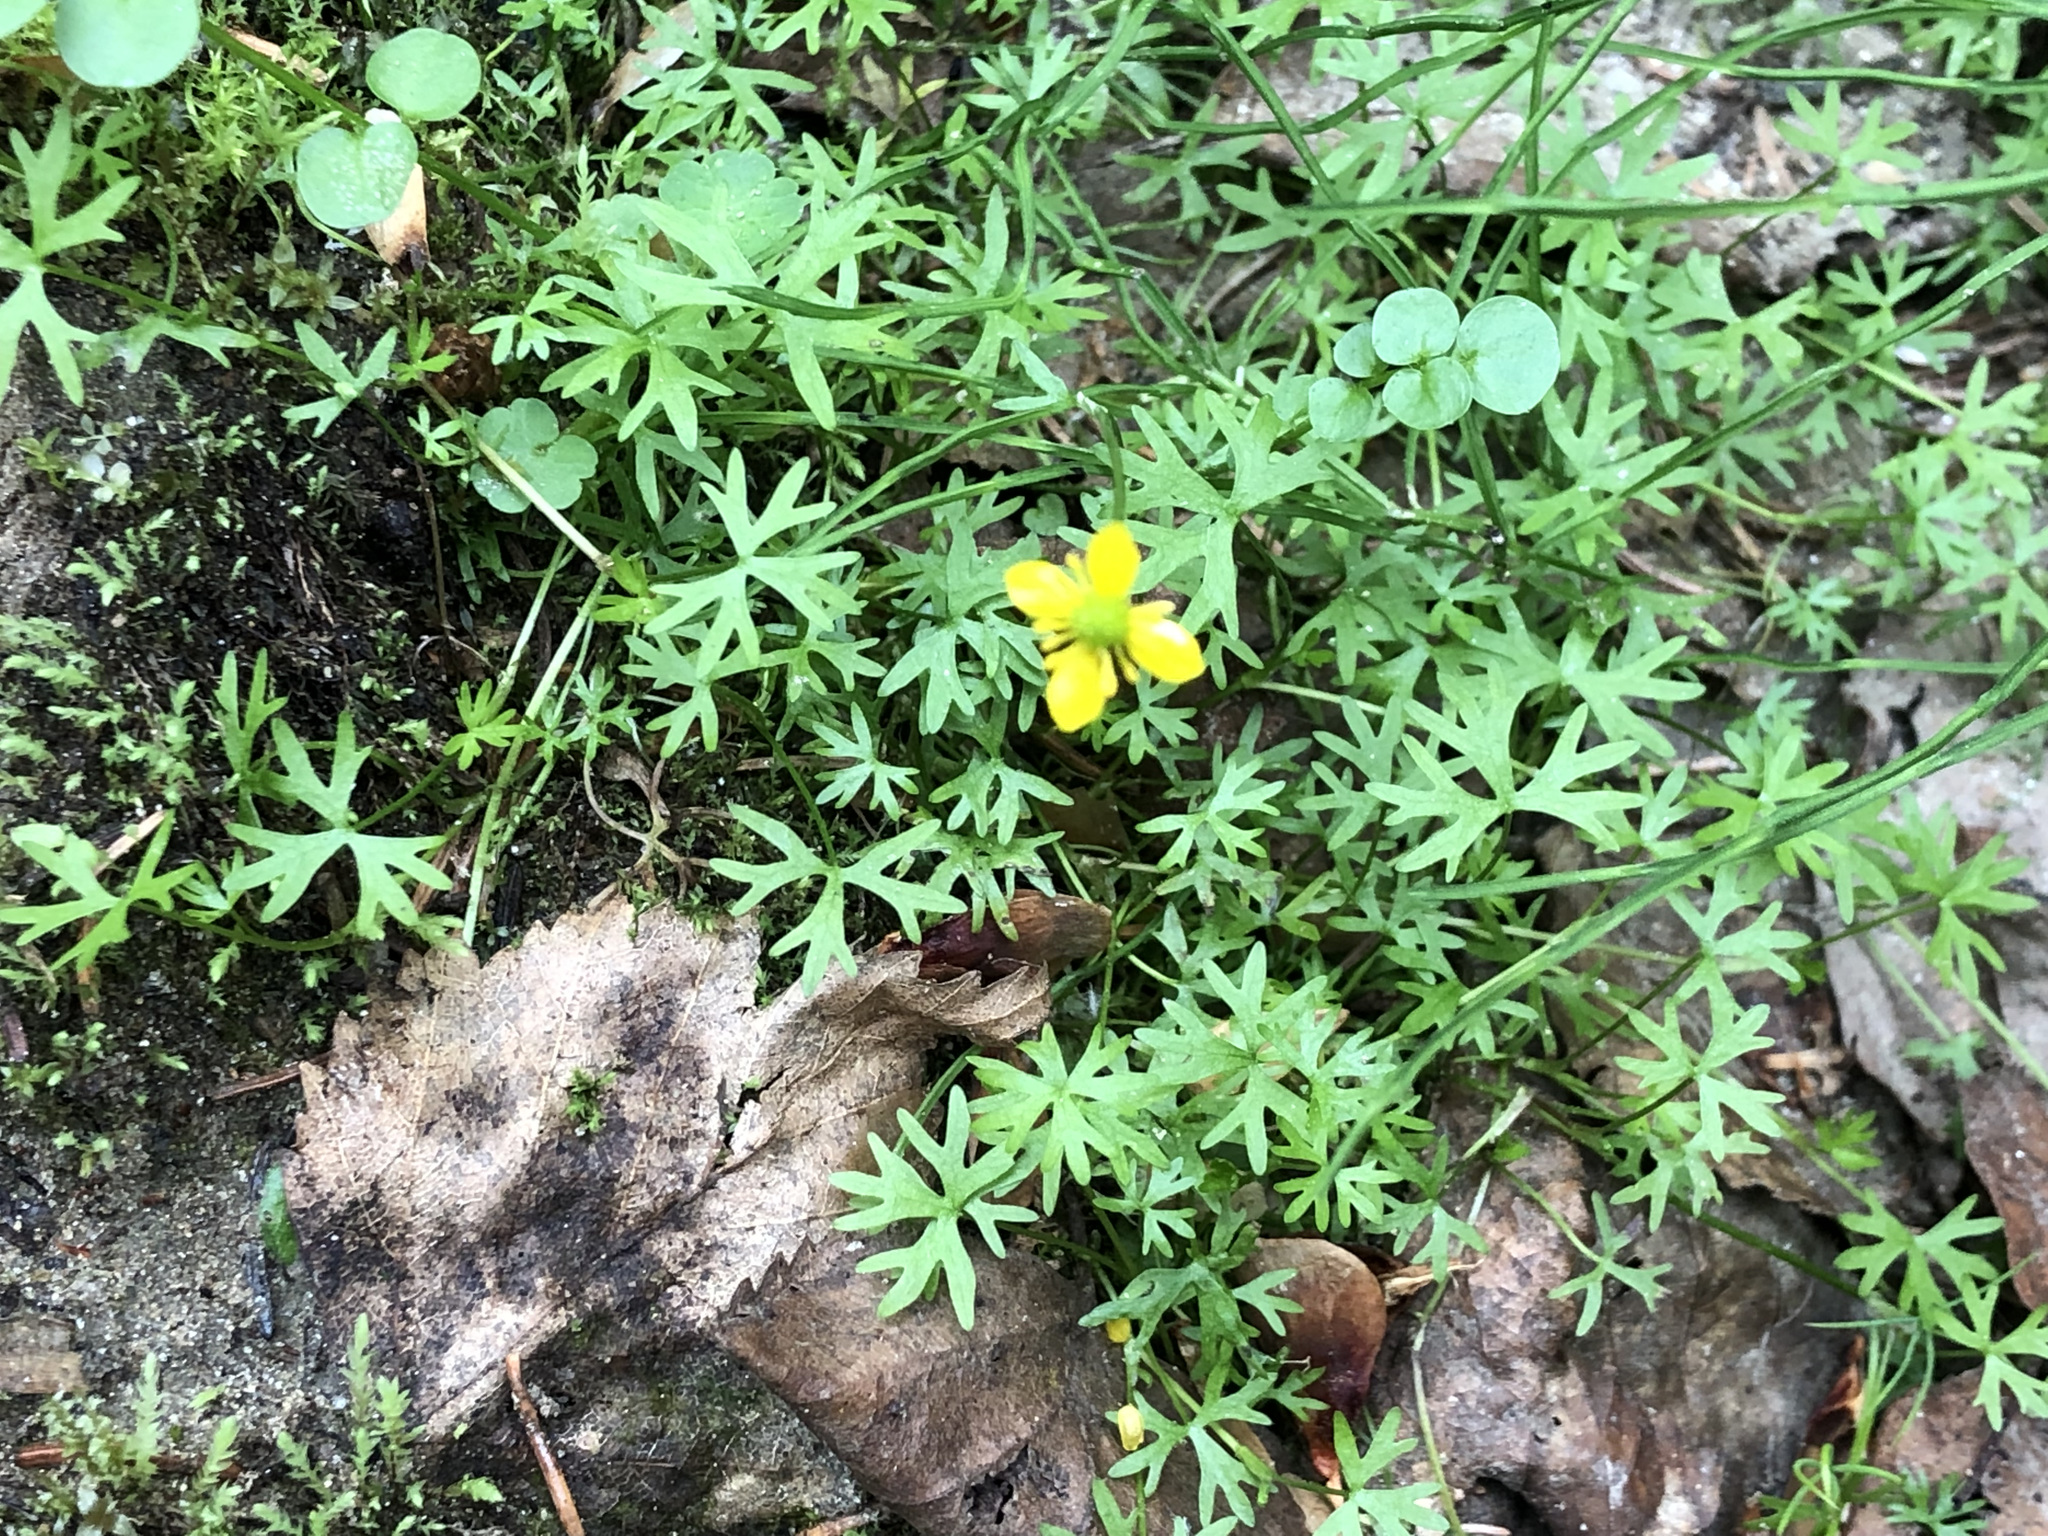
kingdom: Plantae
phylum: Tracheophyta
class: Magnoliopsida
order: Ranunculales
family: Ranunculaceae
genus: Ranunculus
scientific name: Ranunculus gmelinii
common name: Gmelin's buttercup
